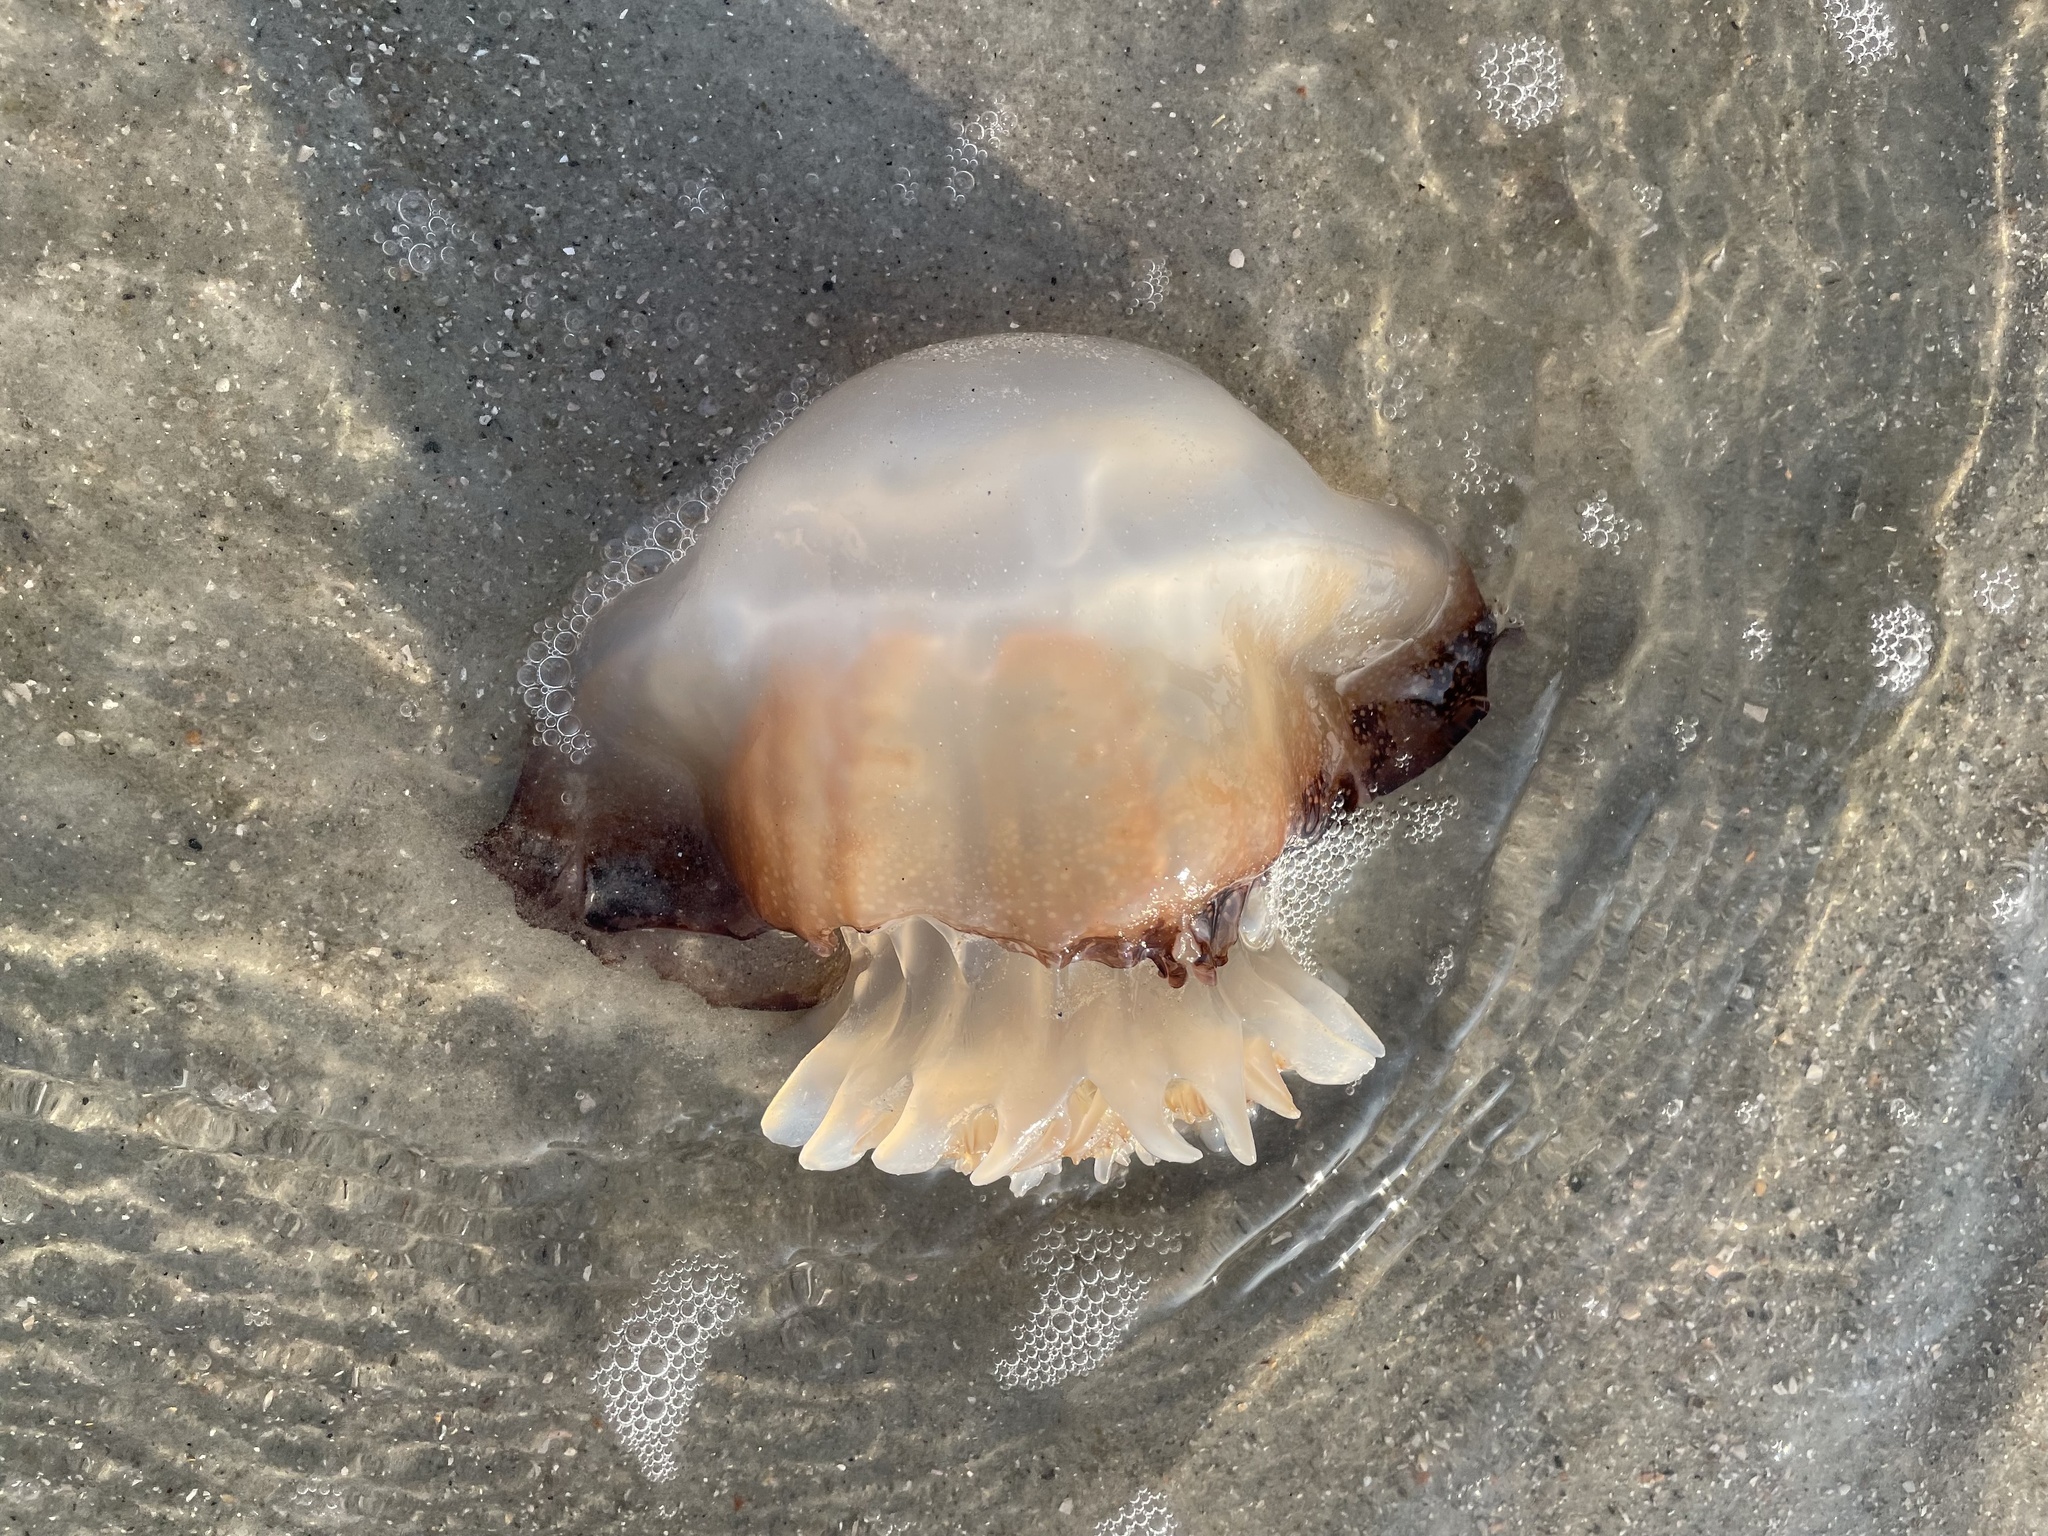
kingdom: Animalia
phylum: Cnidaria
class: Scyphozoa
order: Rhizostomeae
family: Stomolophidae
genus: Stomolophus
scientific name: Stomolophus meleagris
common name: Cabbagehead
